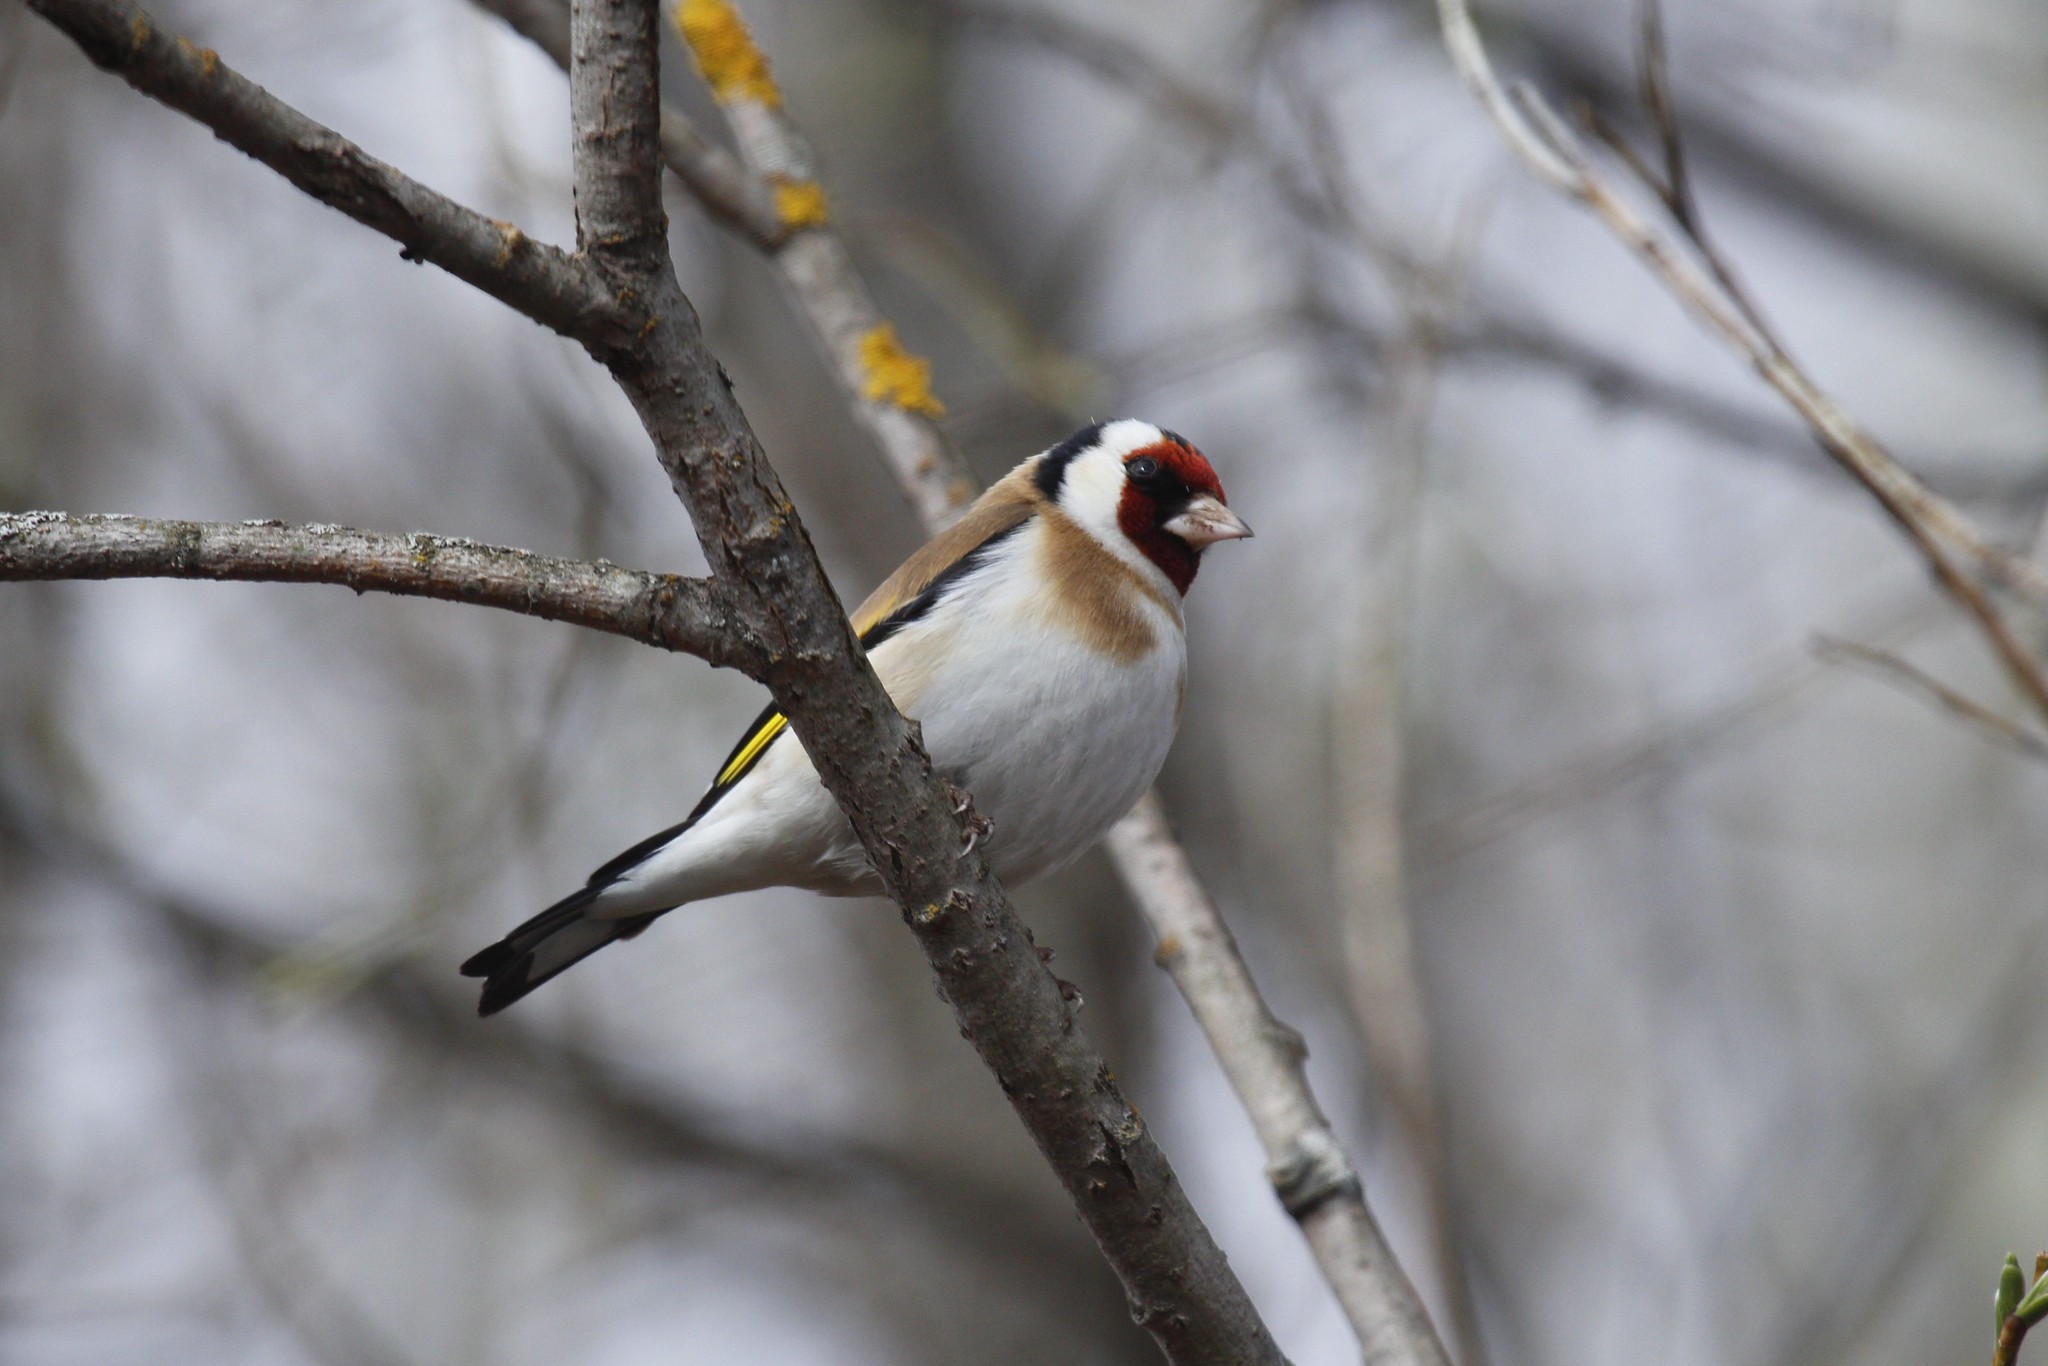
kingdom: Animalia
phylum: Chordata
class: Aves
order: Passeriformes
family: Fringillidae
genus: Carduelis
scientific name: Carduelis carduelis
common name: European goldfinch
